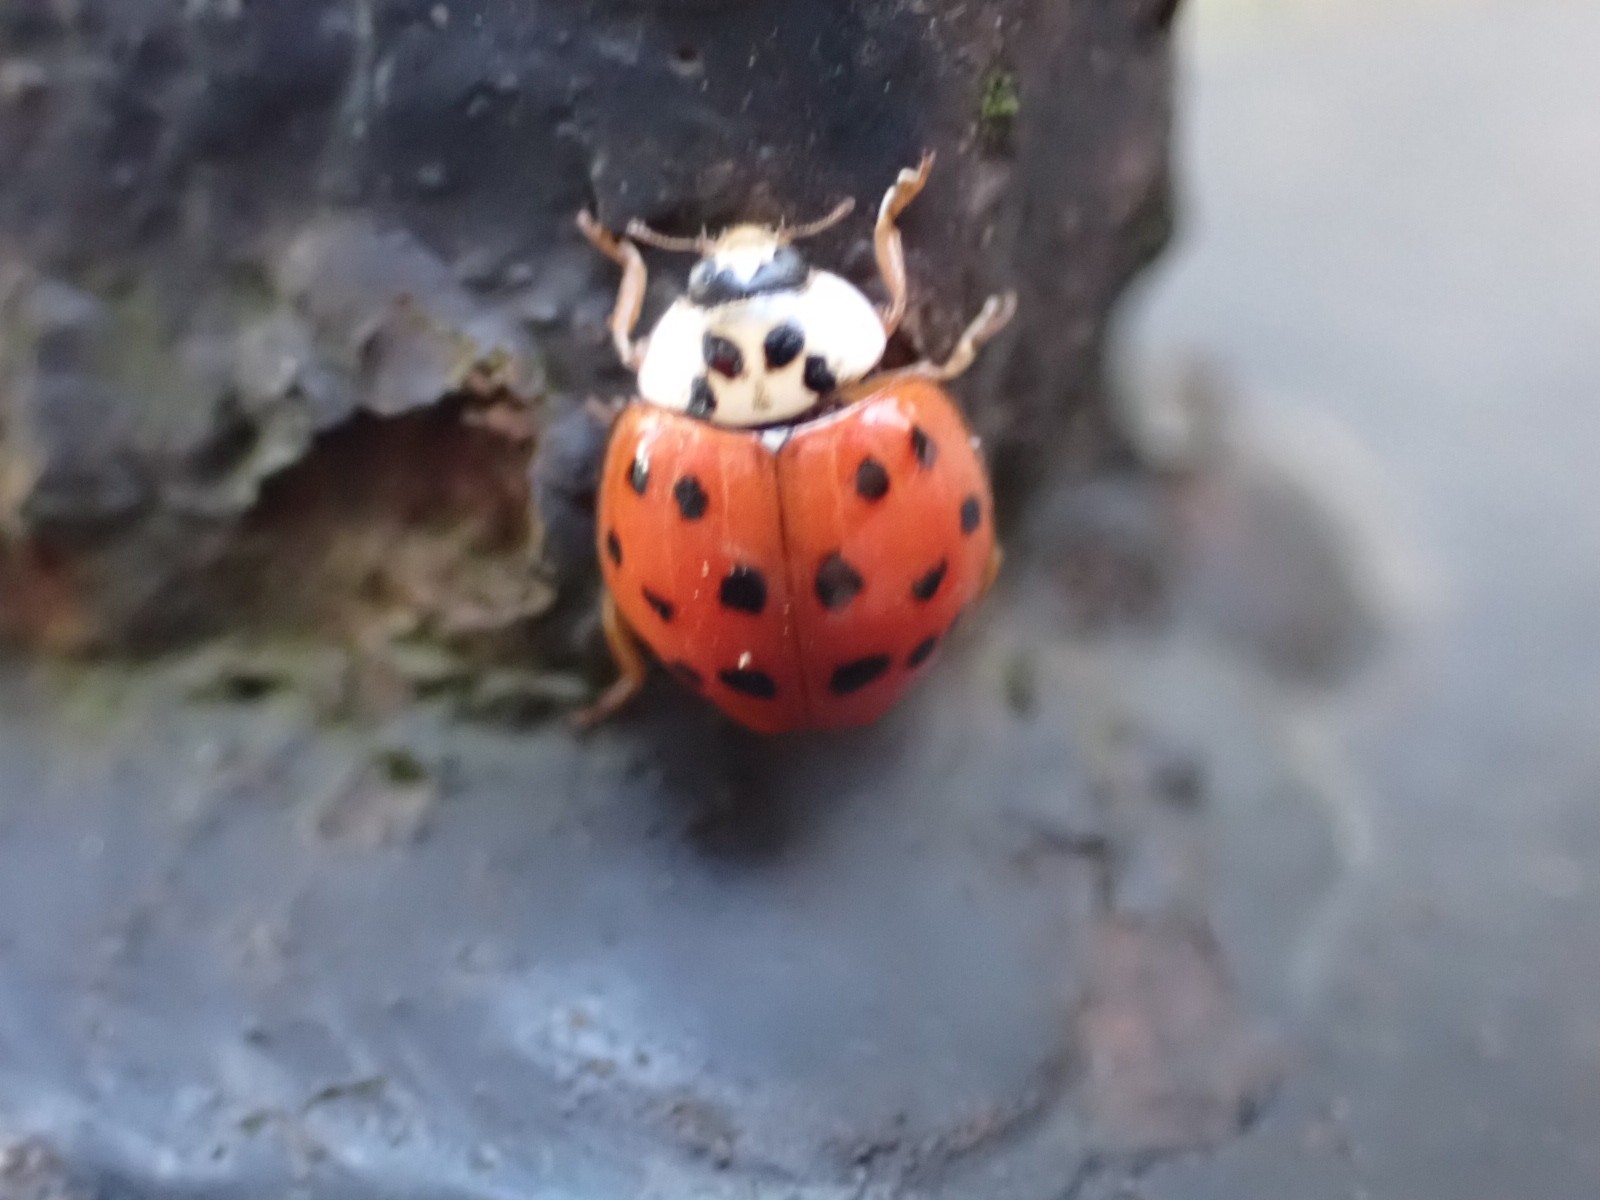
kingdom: Animalia
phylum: Arthropoda
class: Insecta
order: Coleoptera
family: Coccinellidae
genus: Harmonia
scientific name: Harmonia axyridis
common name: Harlequin ladybird
